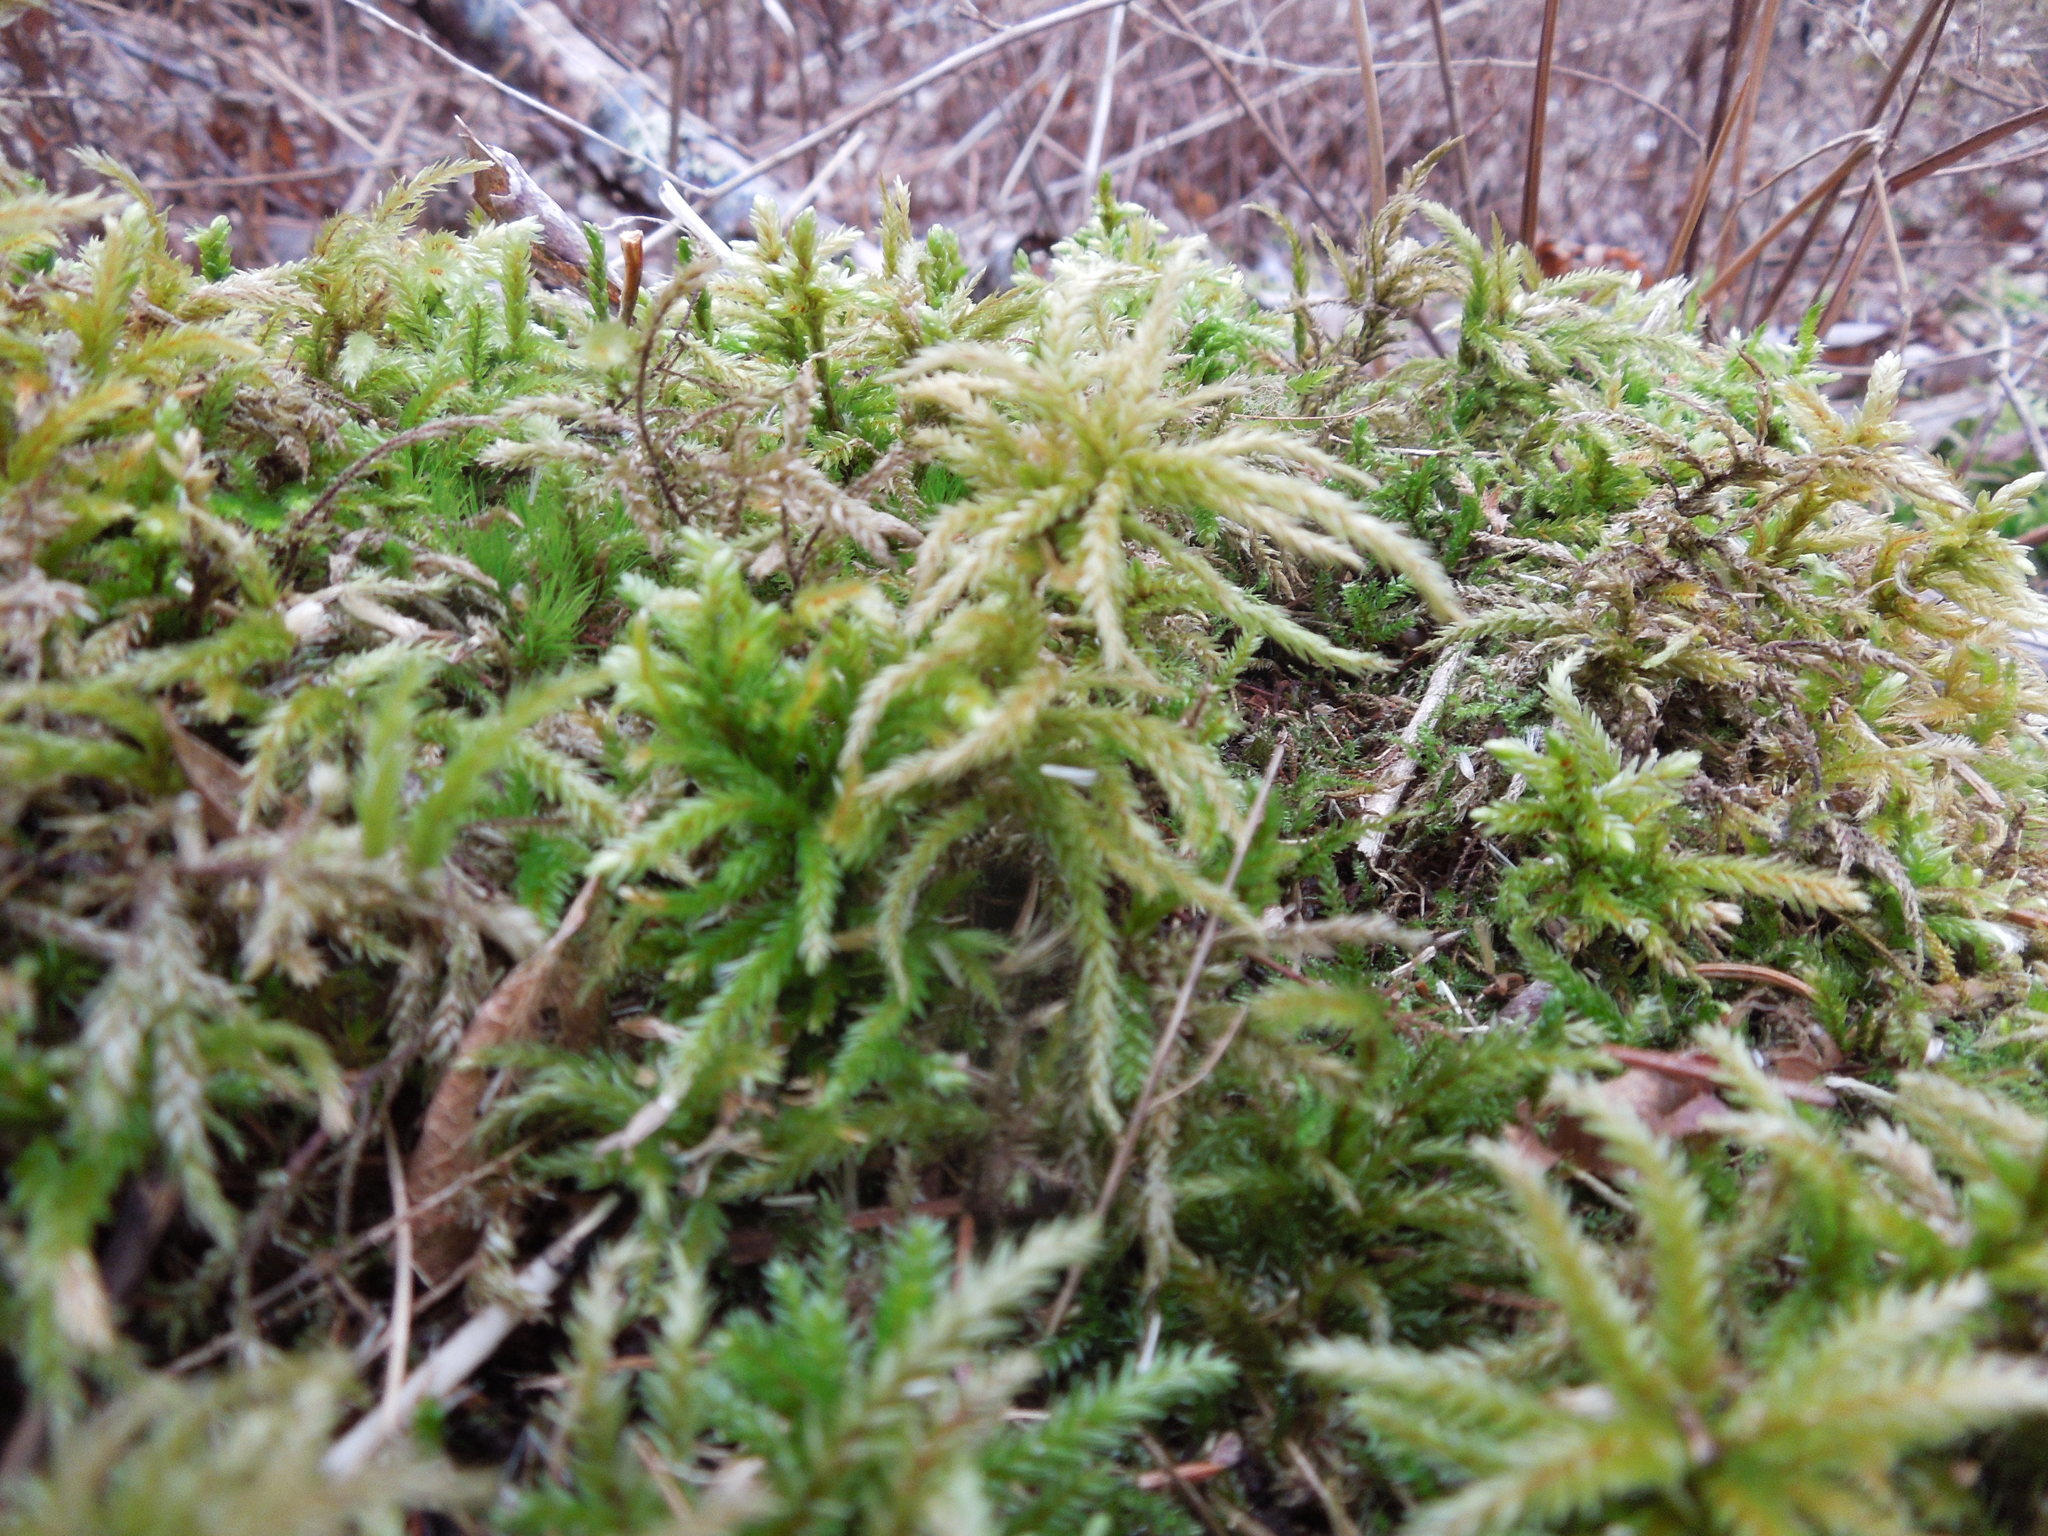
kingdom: Plantae
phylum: Bryophyta
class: Bryopsida
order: Hypnales
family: Climaciaceae
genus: Climacium
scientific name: Climacium
